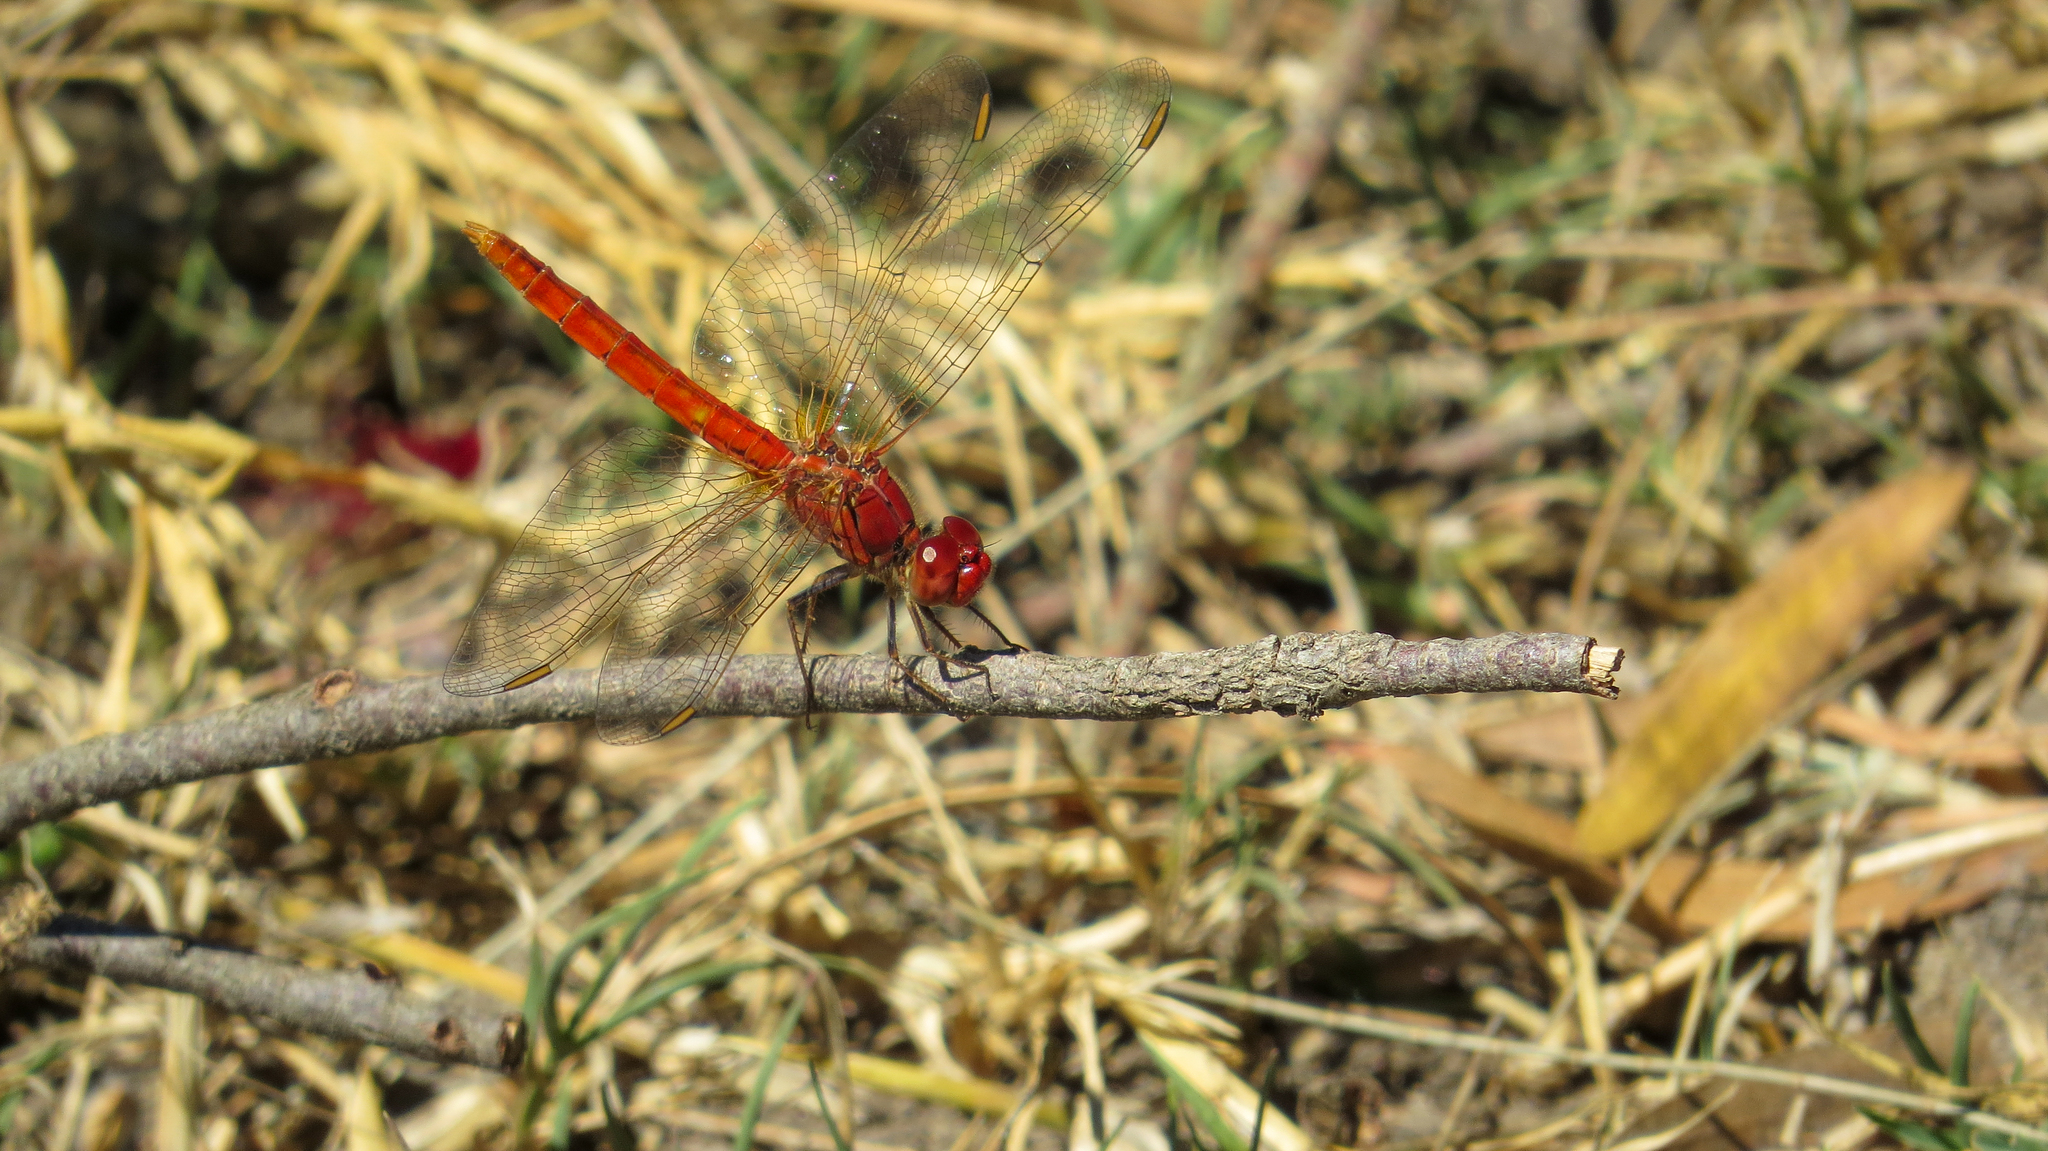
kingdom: Animalia
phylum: Arthropoda
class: Insecta
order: Odonata
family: Libellulidae
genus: Diplacodes
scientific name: Diplacodes haematodes
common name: Scarlet percher
